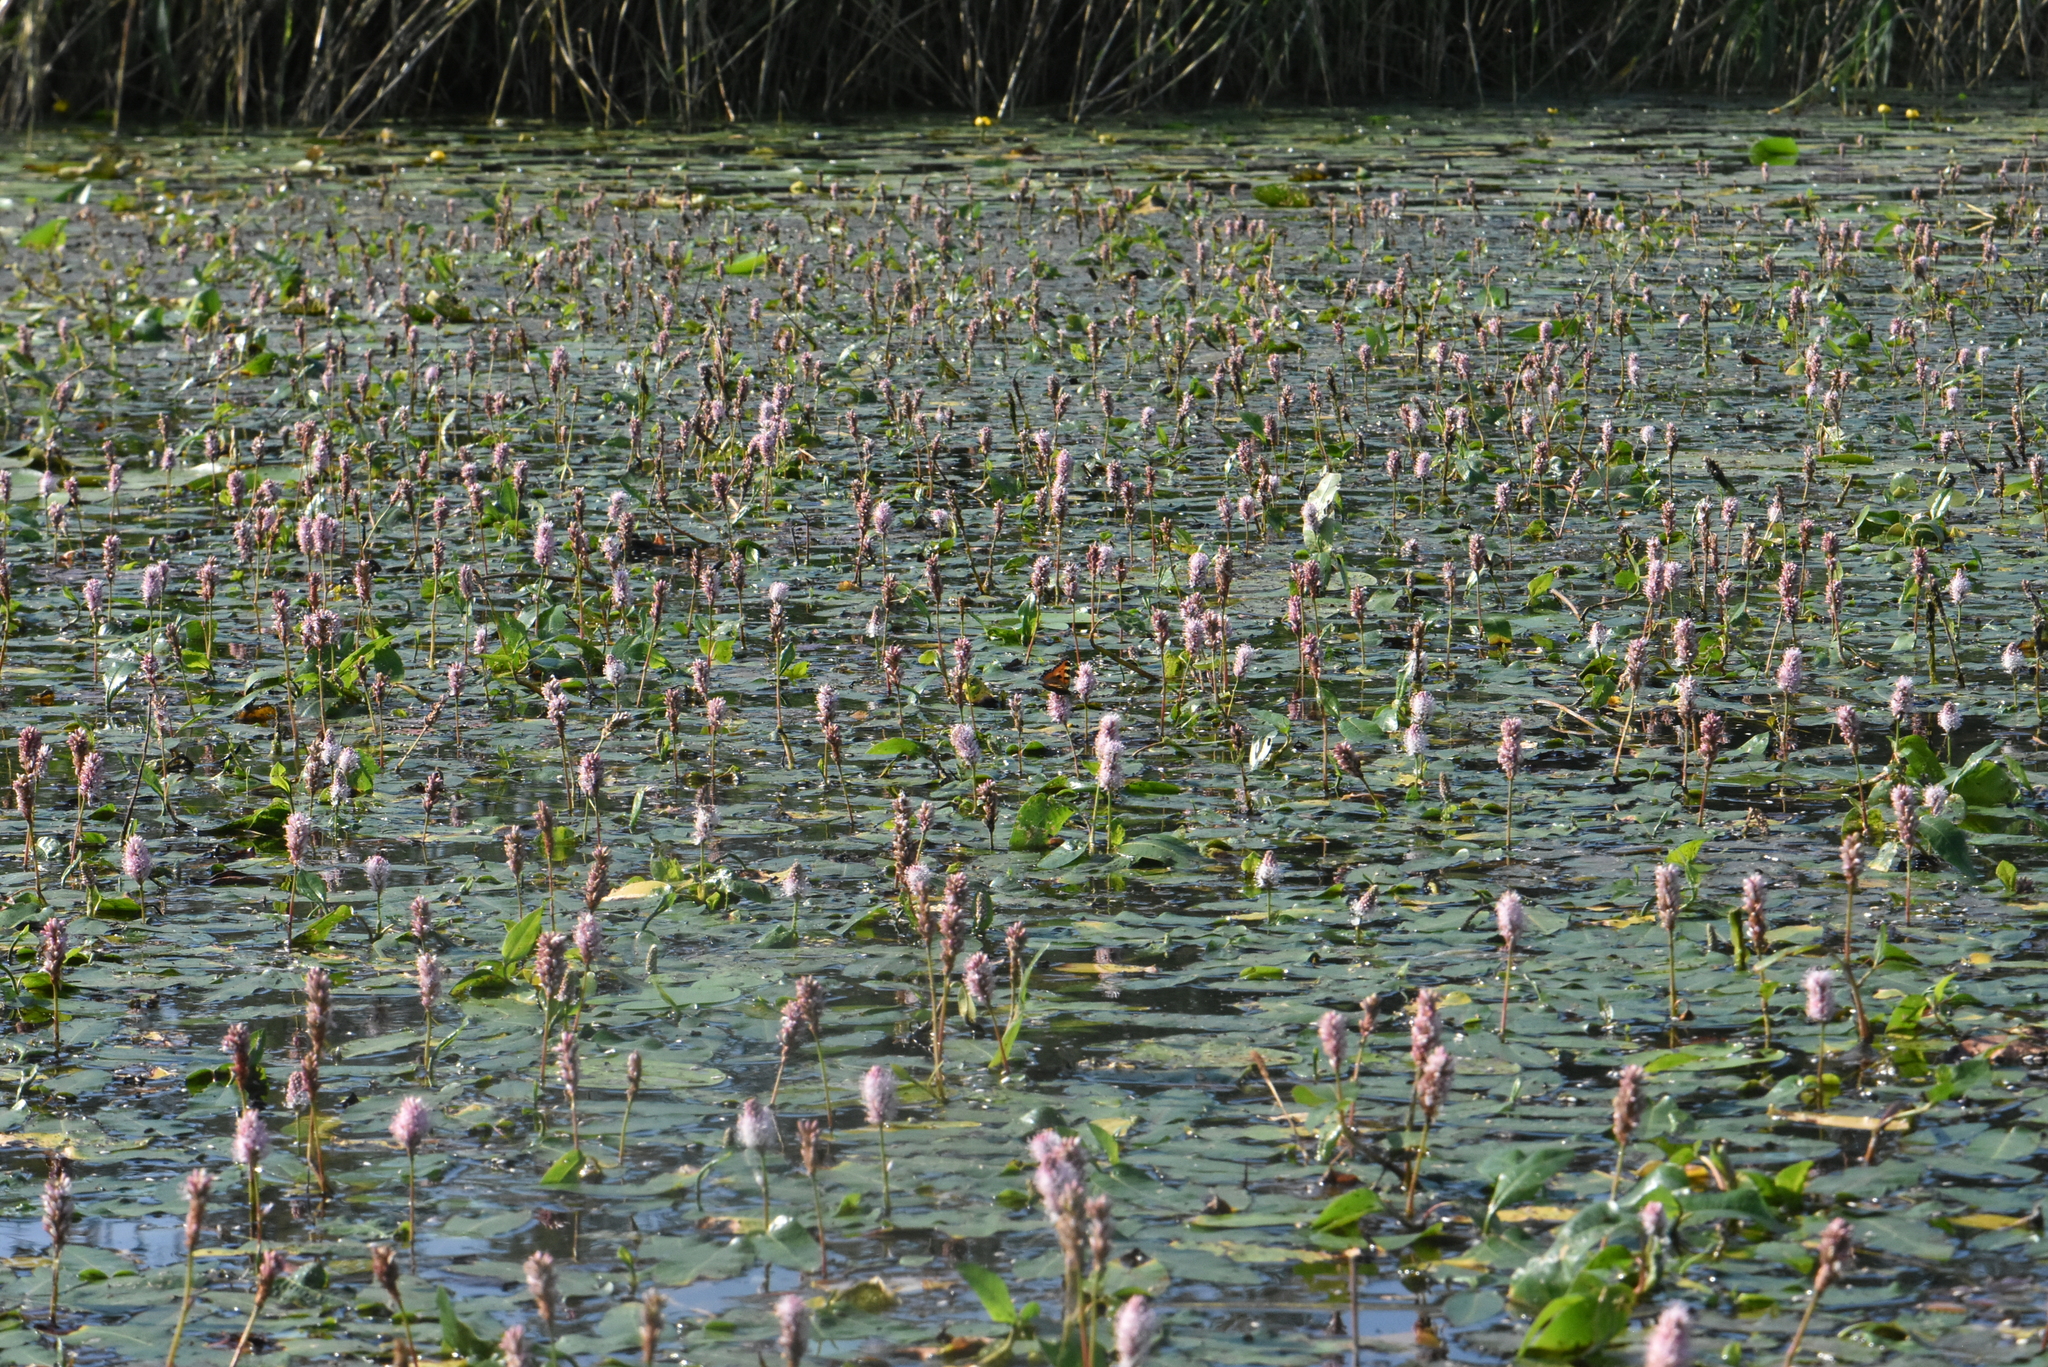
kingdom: Plantae
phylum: Tracheophyta
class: Magnoliopsida
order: Caryophyllales
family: Polygonaceae
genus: Persicaria
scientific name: Persicaria amphibia
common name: Amphibious bistort
